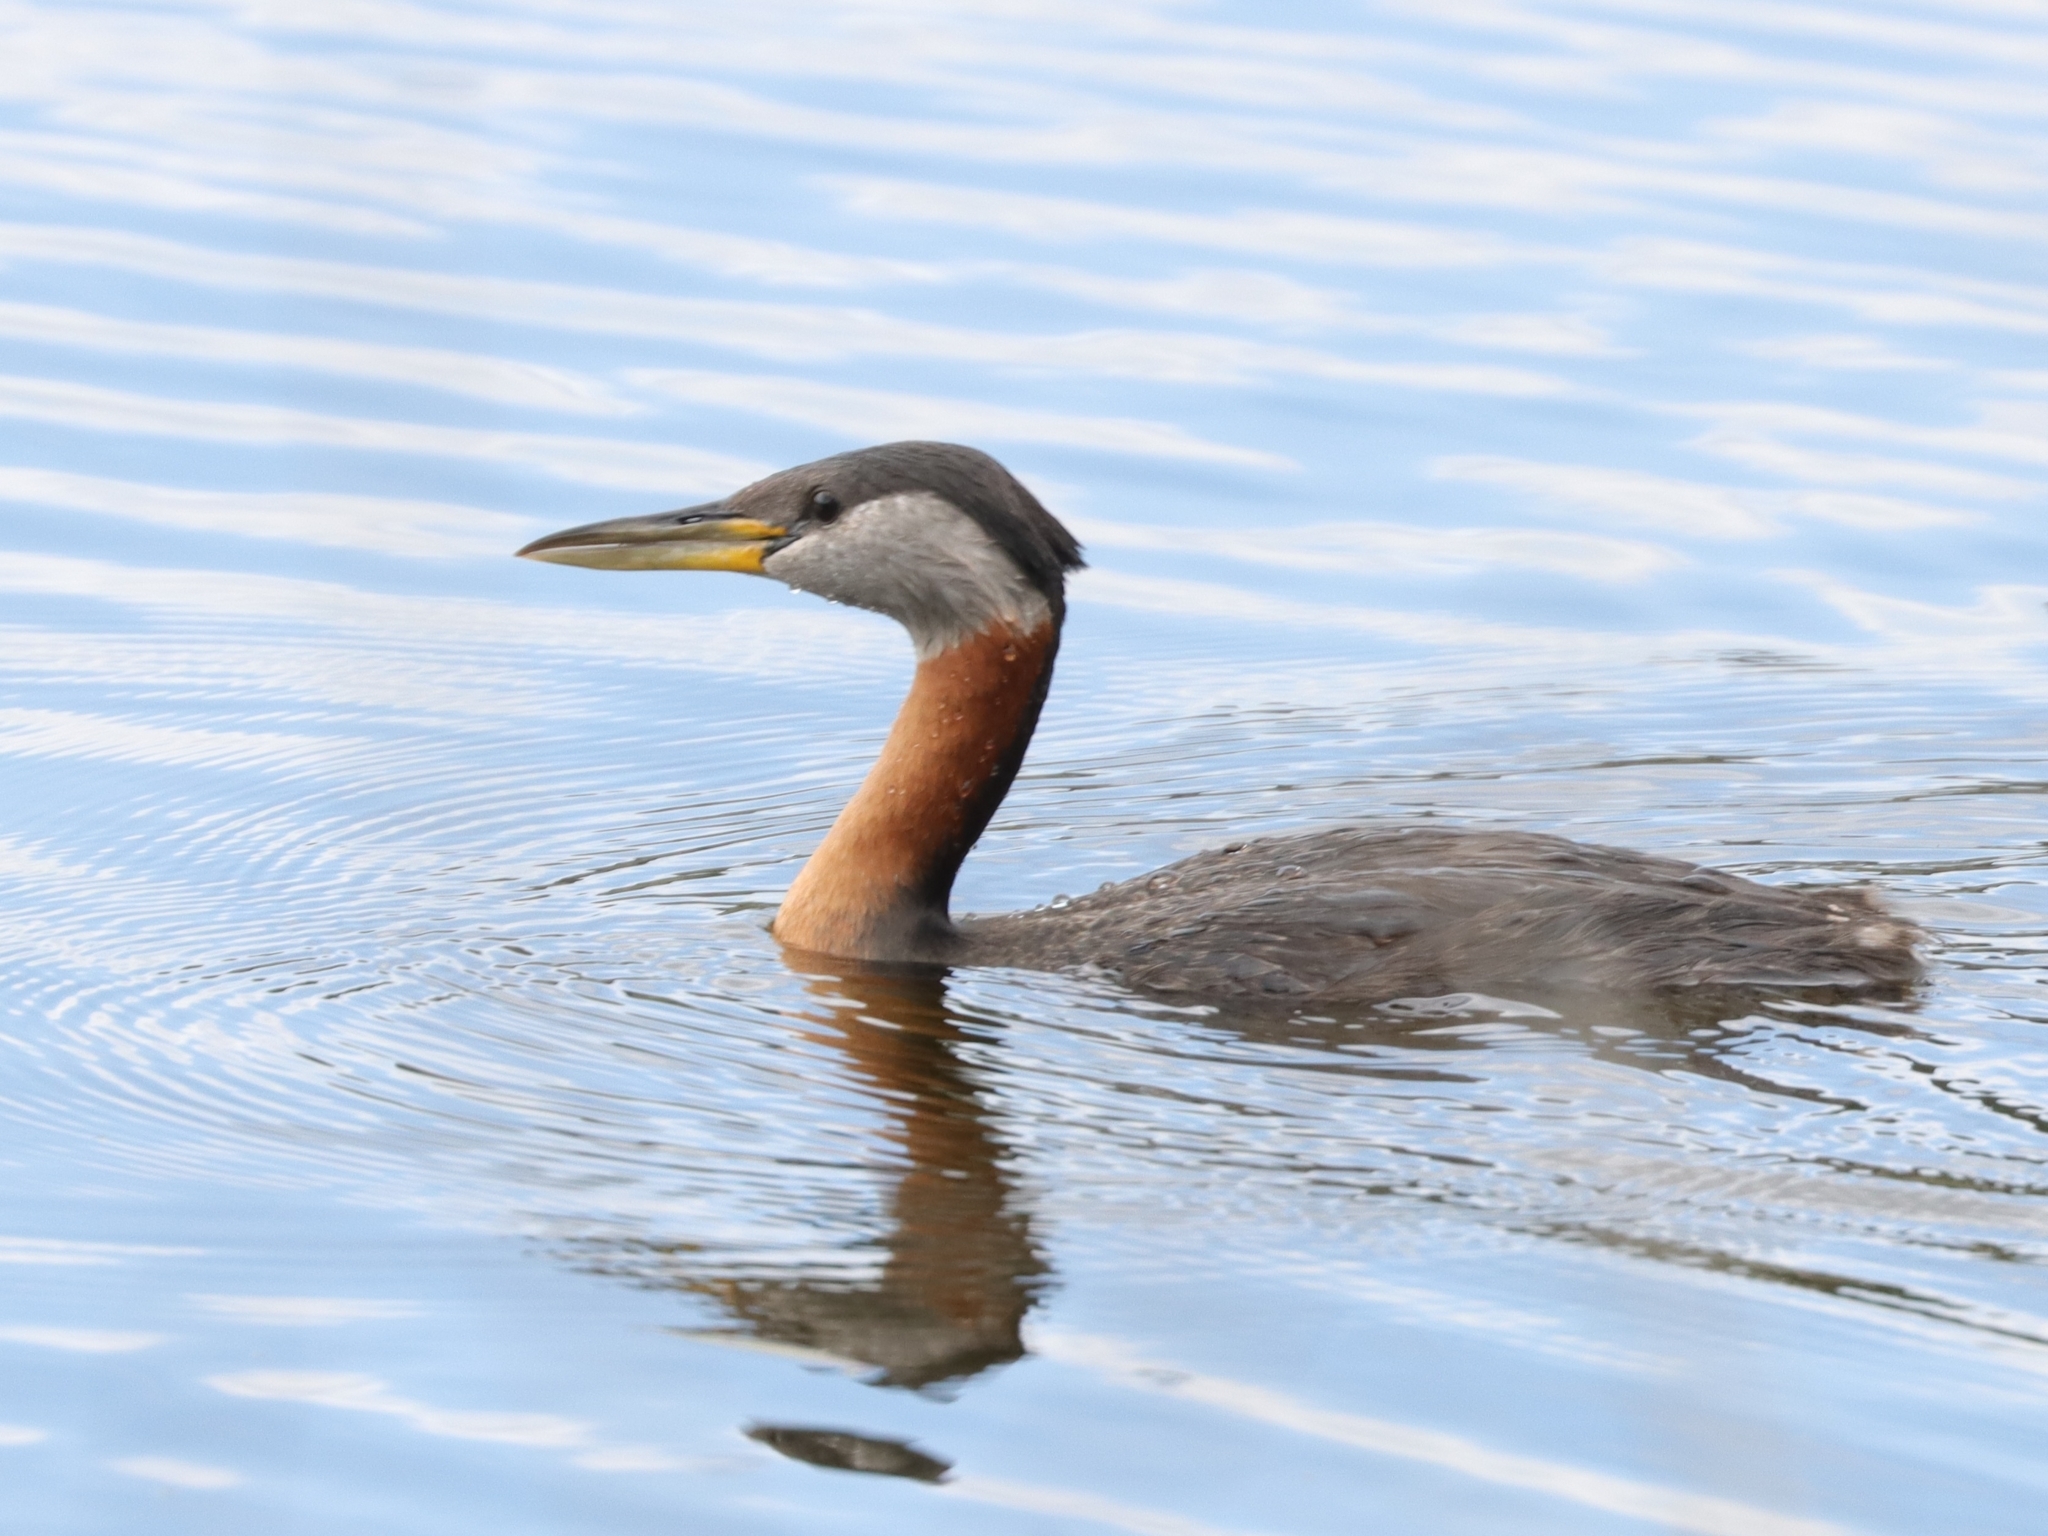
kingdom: Animalia
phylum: Chordata
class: Aves
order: Podicipediformes
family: Podicipedidae
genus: Podiceps
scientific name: Podiceps grisegena
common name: Red-necked grebe
